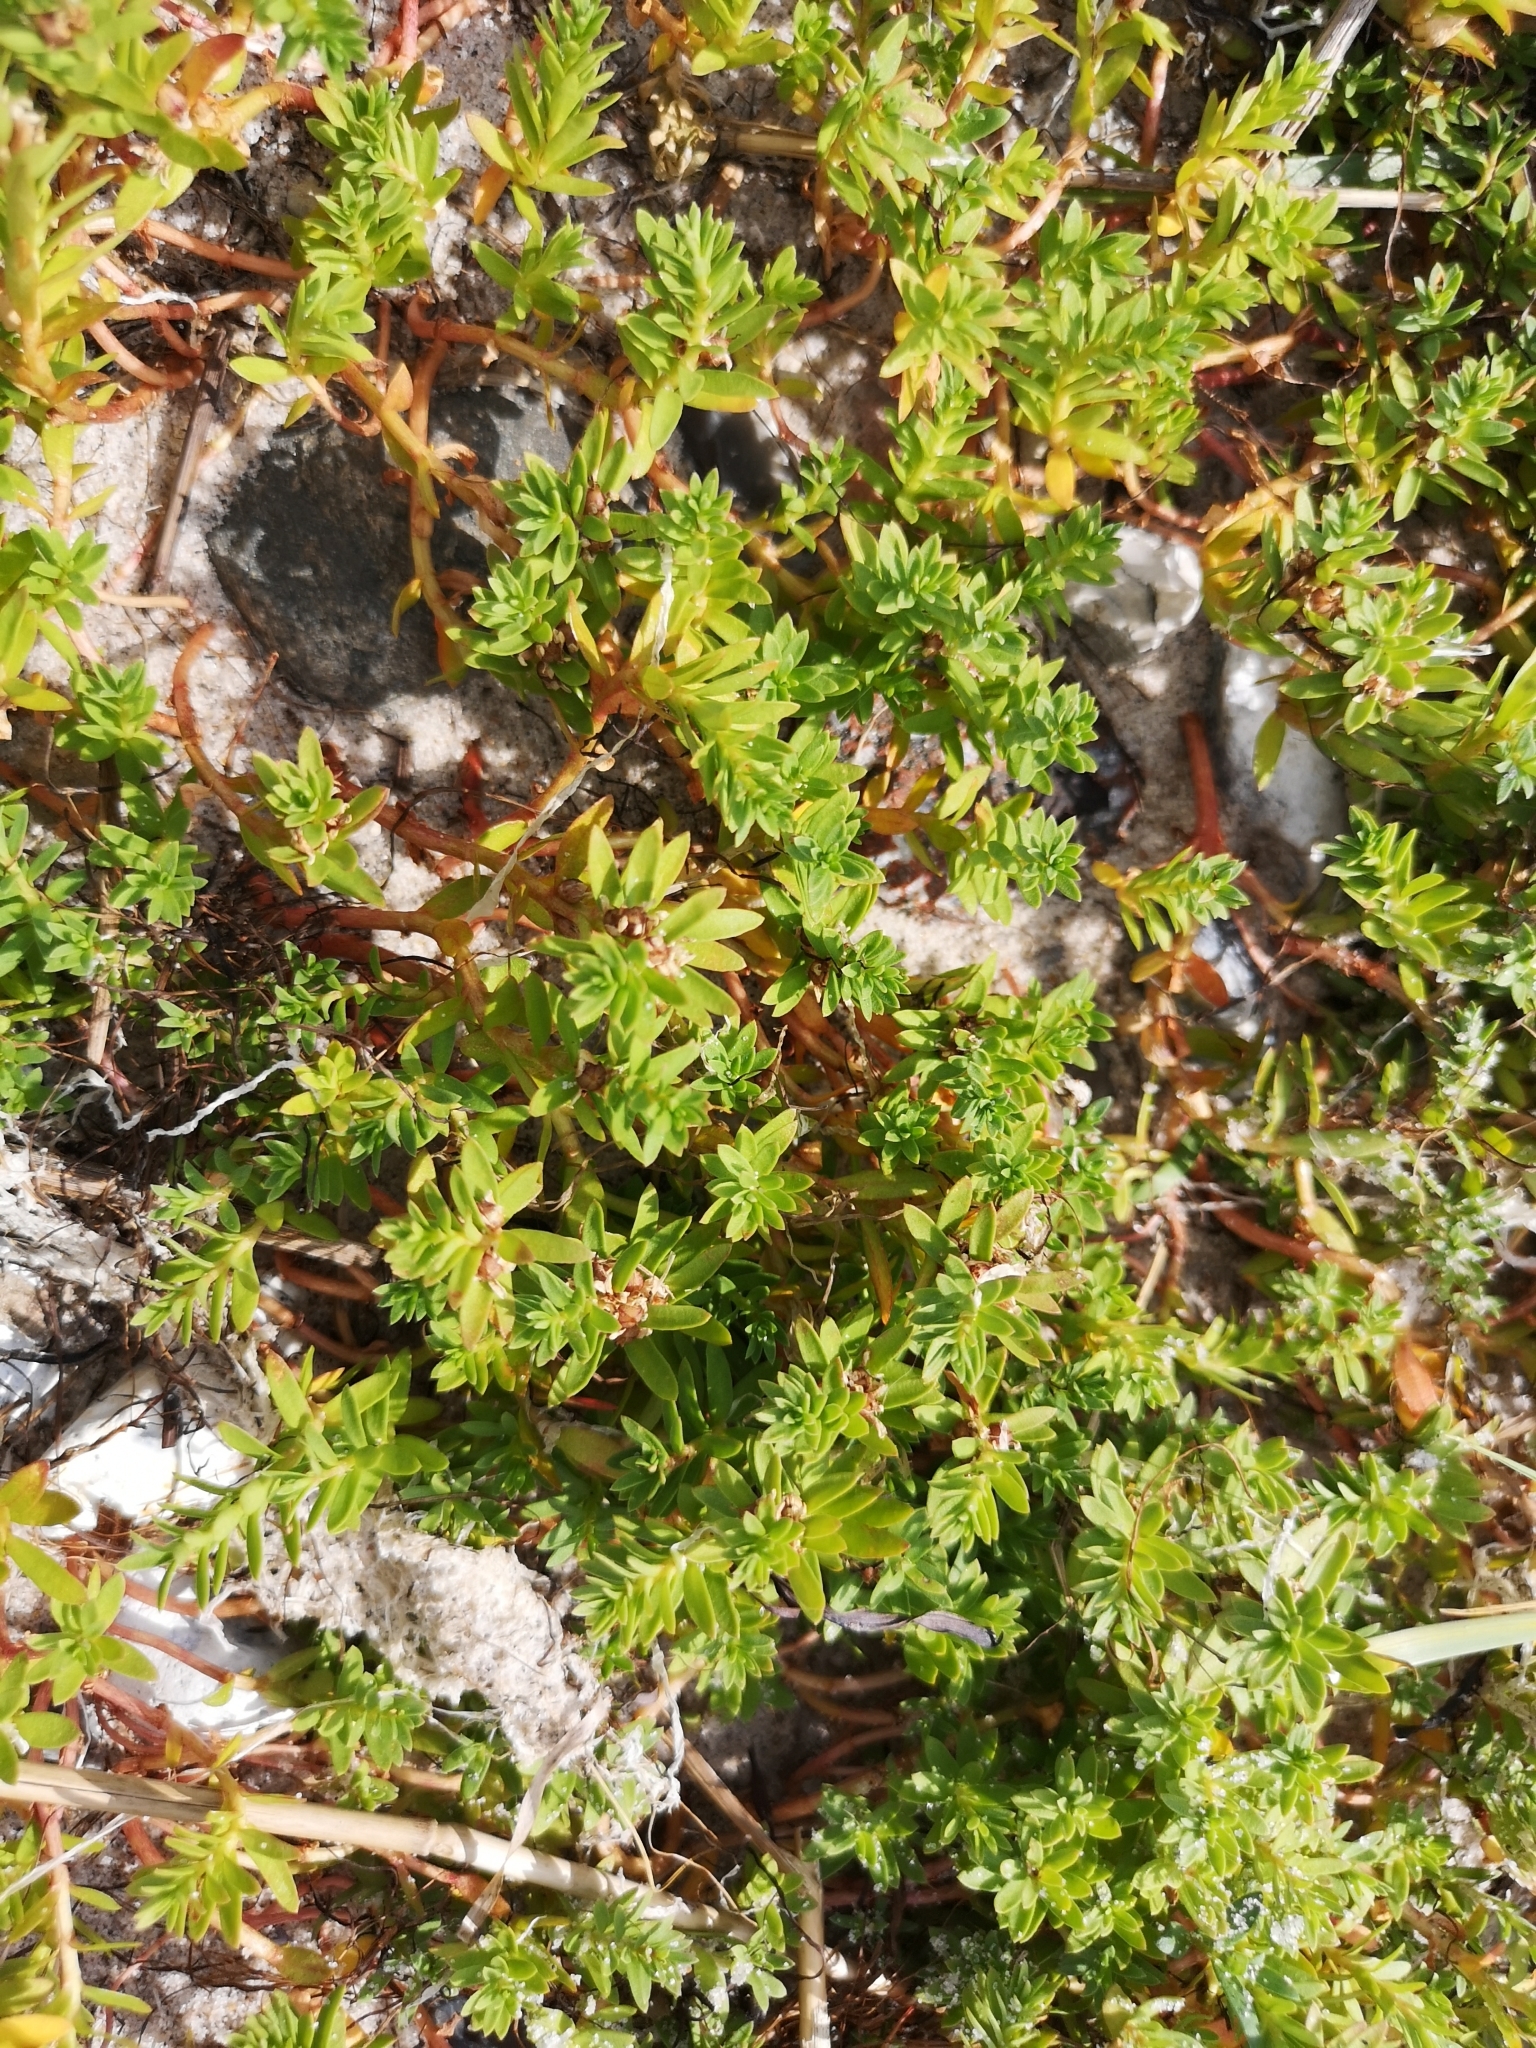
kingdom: Plantae
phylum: Tracheophyta
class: Magnoliopsida
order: Ericales
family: Primulaceae
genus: Lysimachia
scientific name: Lysimachia maritima
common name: Sea milkwort
